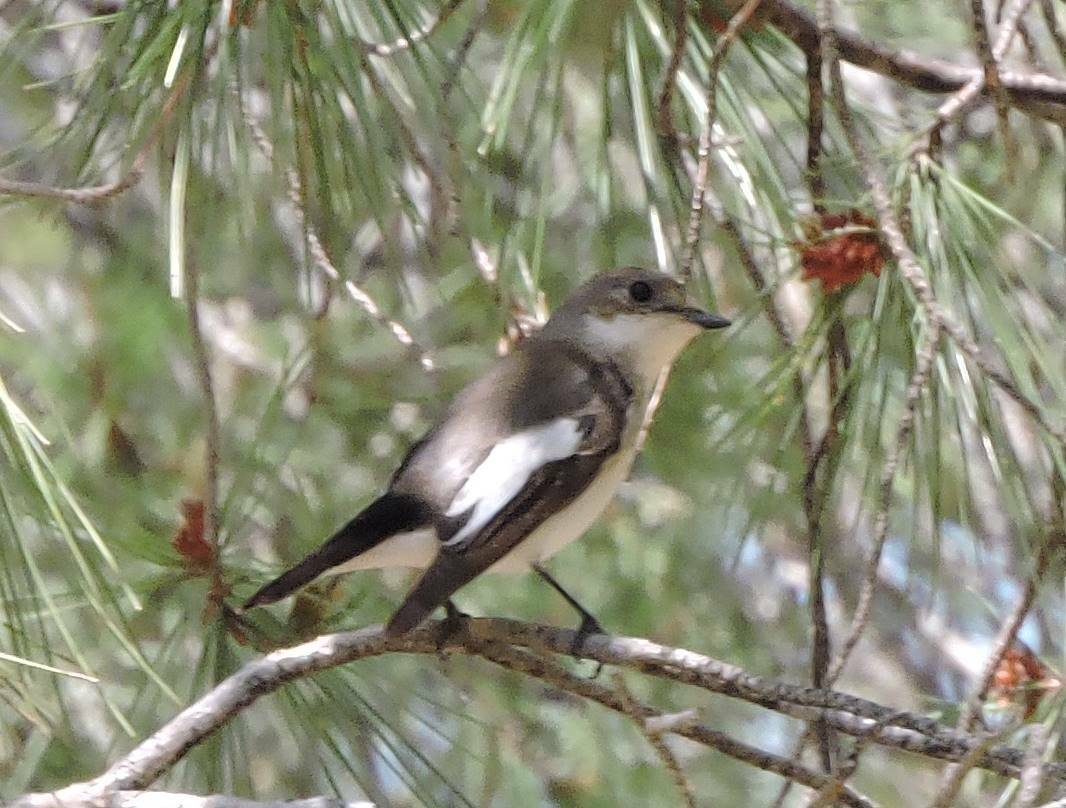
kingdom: Animalia
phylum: Chordata
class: Aves
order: Passeriformes
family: Muscicapidae
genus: Ficedula
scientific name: Ficedula hypoleuca
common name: European pied flycatcher
